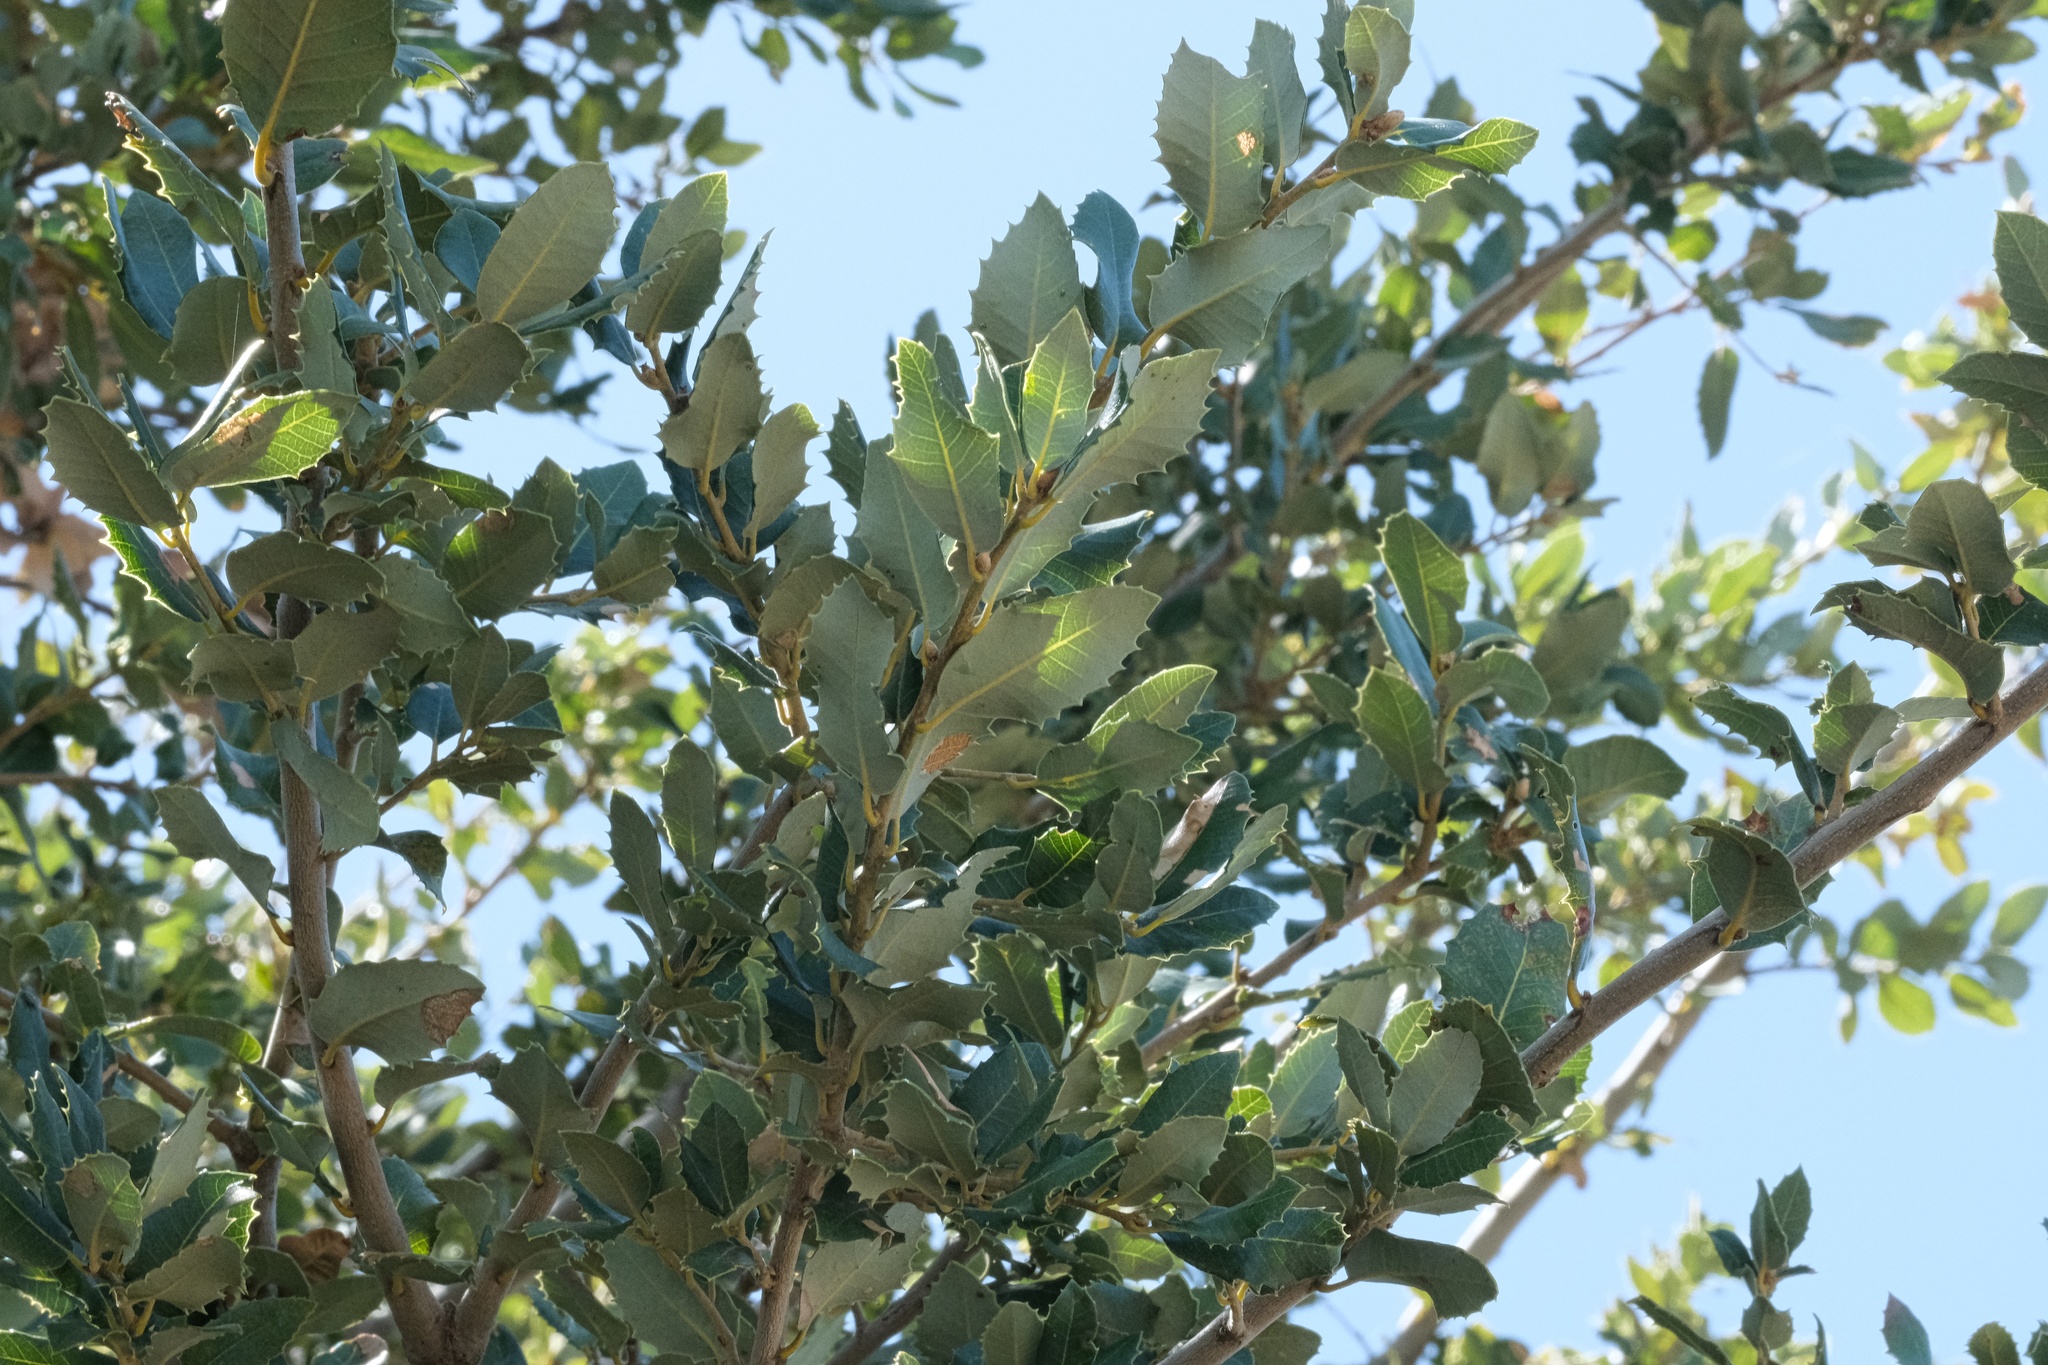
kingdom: Plantae
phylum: Tracheophyta
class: Magnoliopsida
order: Fagales
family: Fagaceae
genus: Quercus
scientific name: Quercus chrysolepis
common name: Canyon live oak
